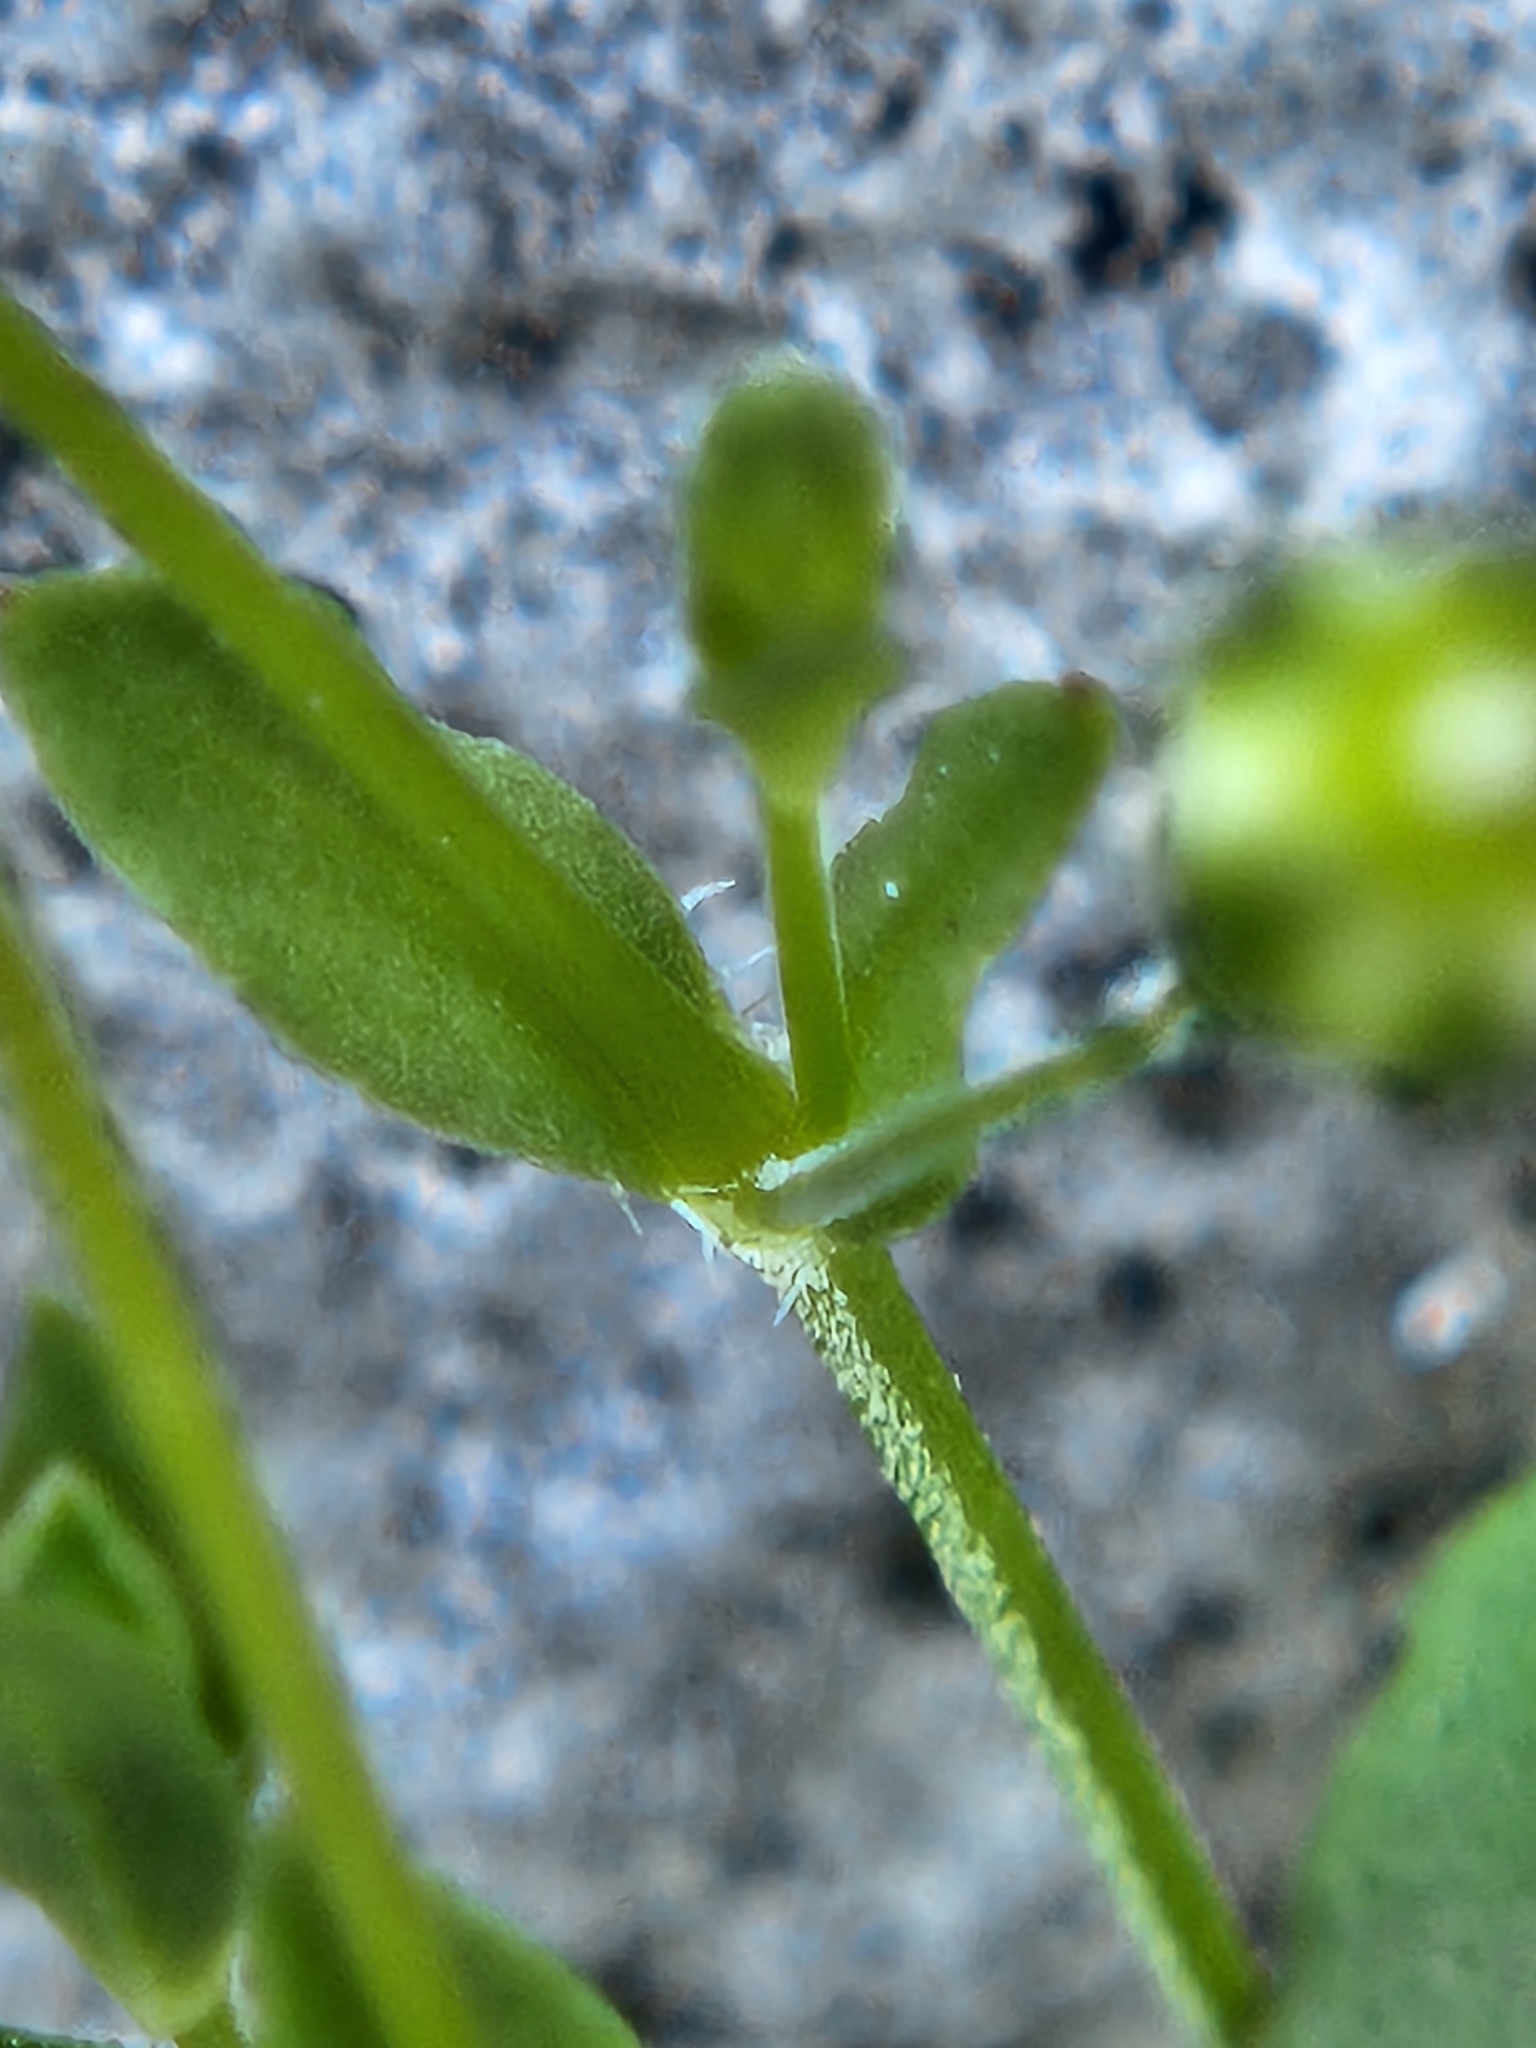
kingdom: Plantae
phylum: Tracheophyta
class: Magnoliopsida
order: Caryophyllales
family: Caryophyllaceae
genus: Arenaria
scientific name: Arenaria benthamii
